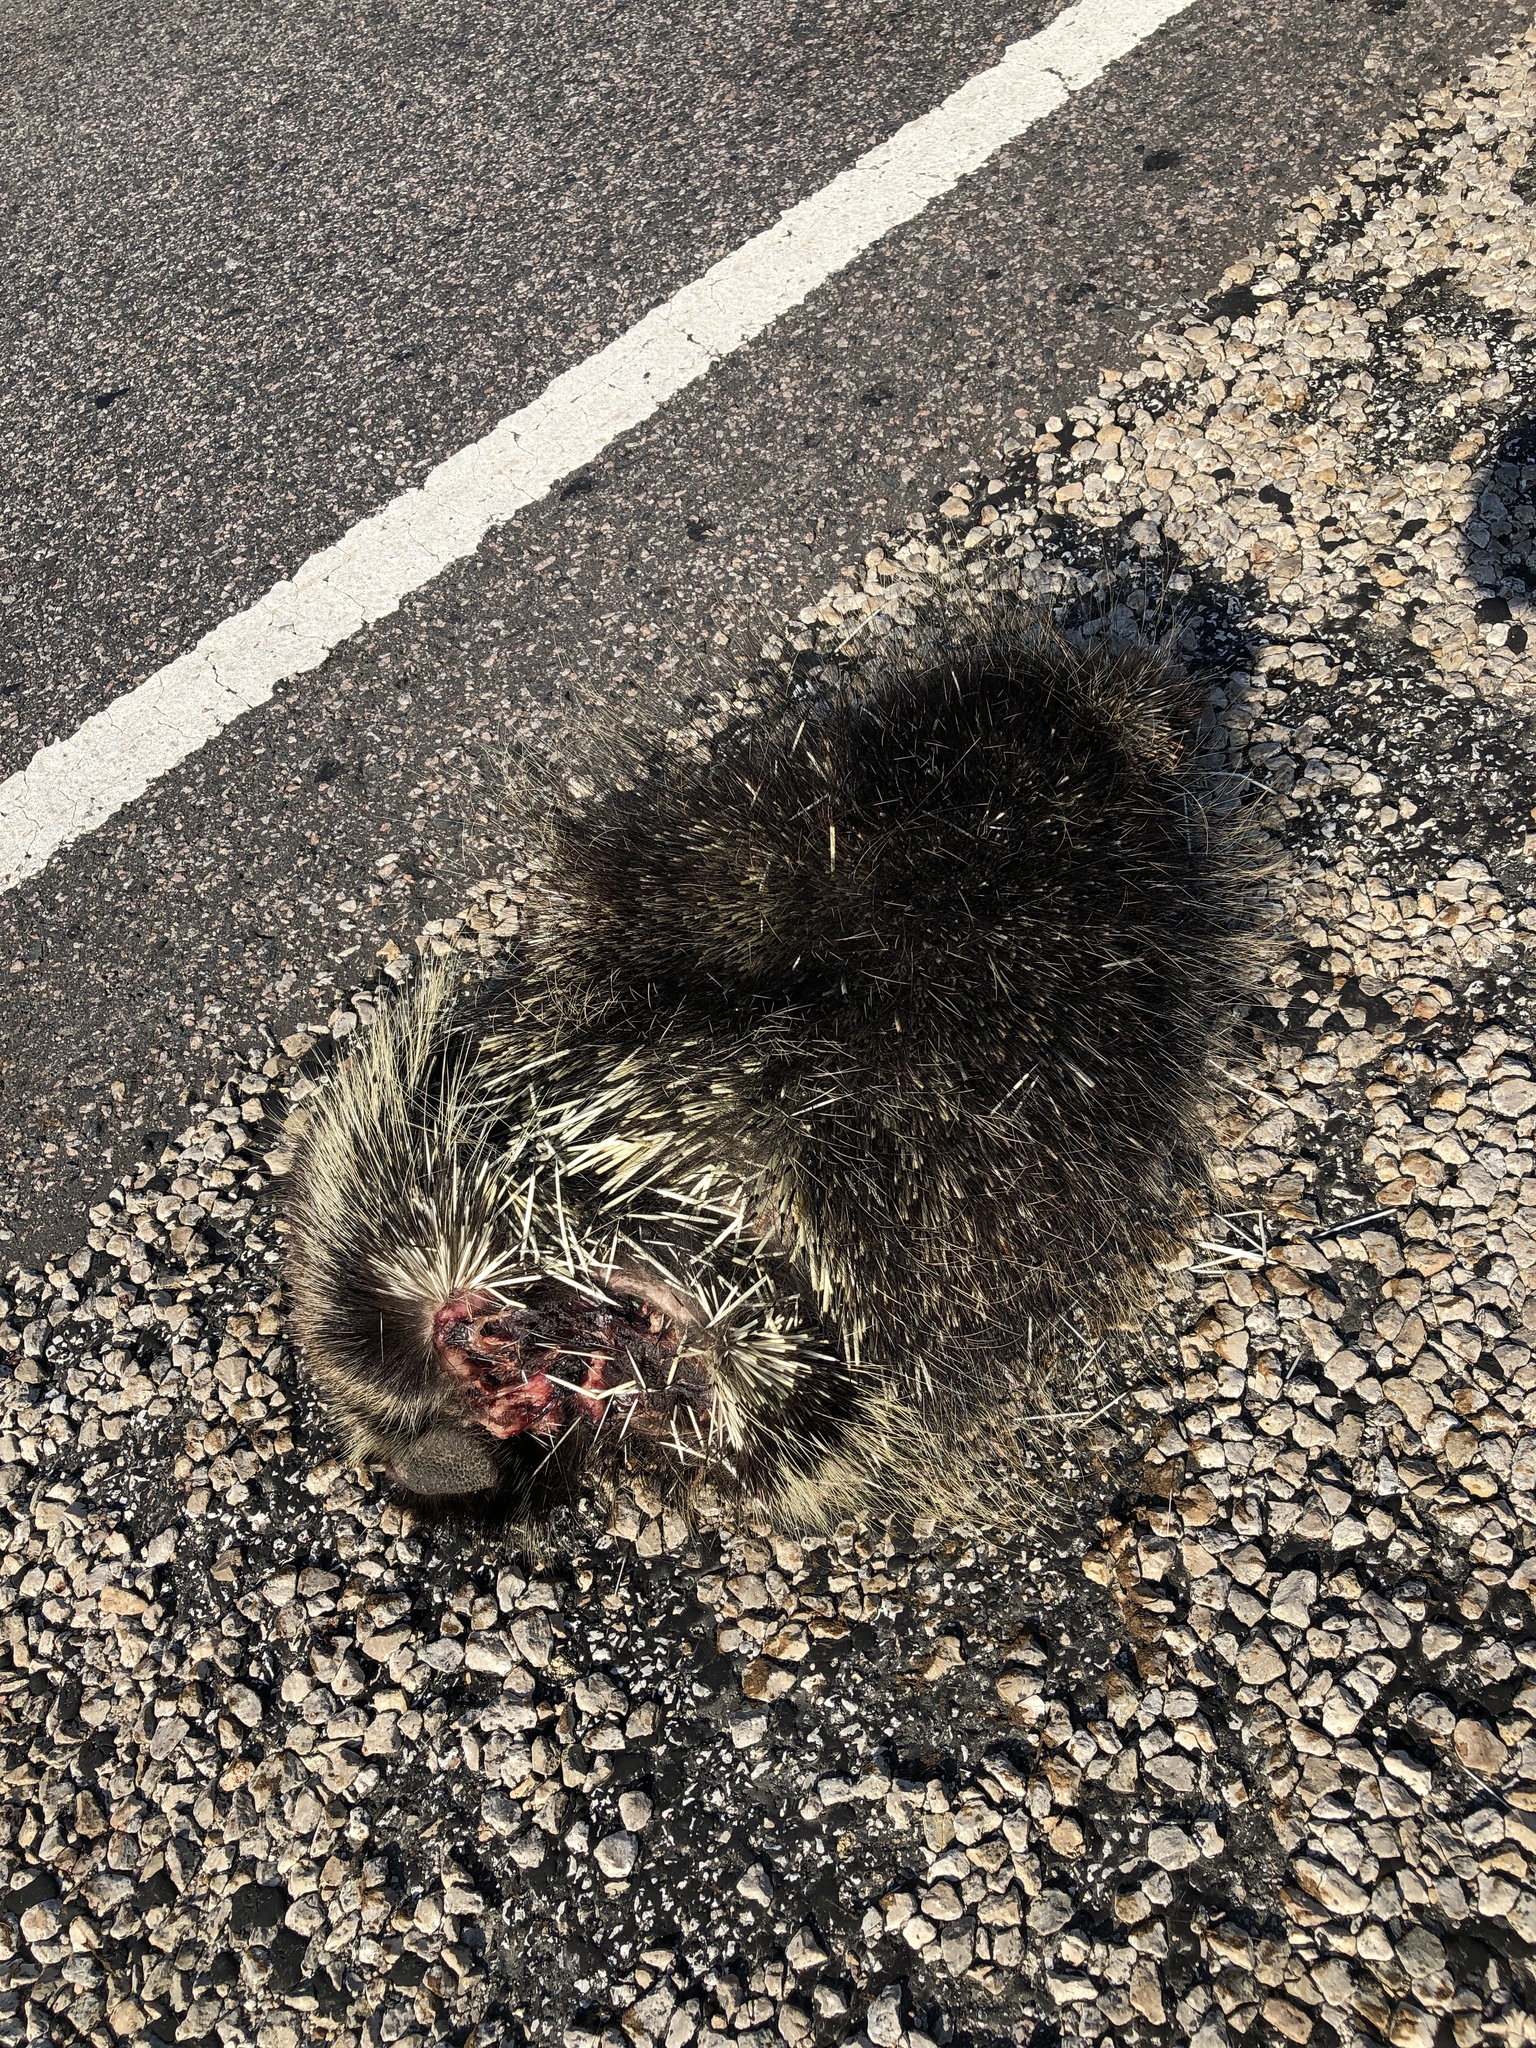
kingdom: Animalia
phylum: Chordata
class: Mammalia
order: Rodentia
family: Erethizontidae
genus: Erethizon
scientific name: Erethizon dorsatus
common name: North american porcupine
